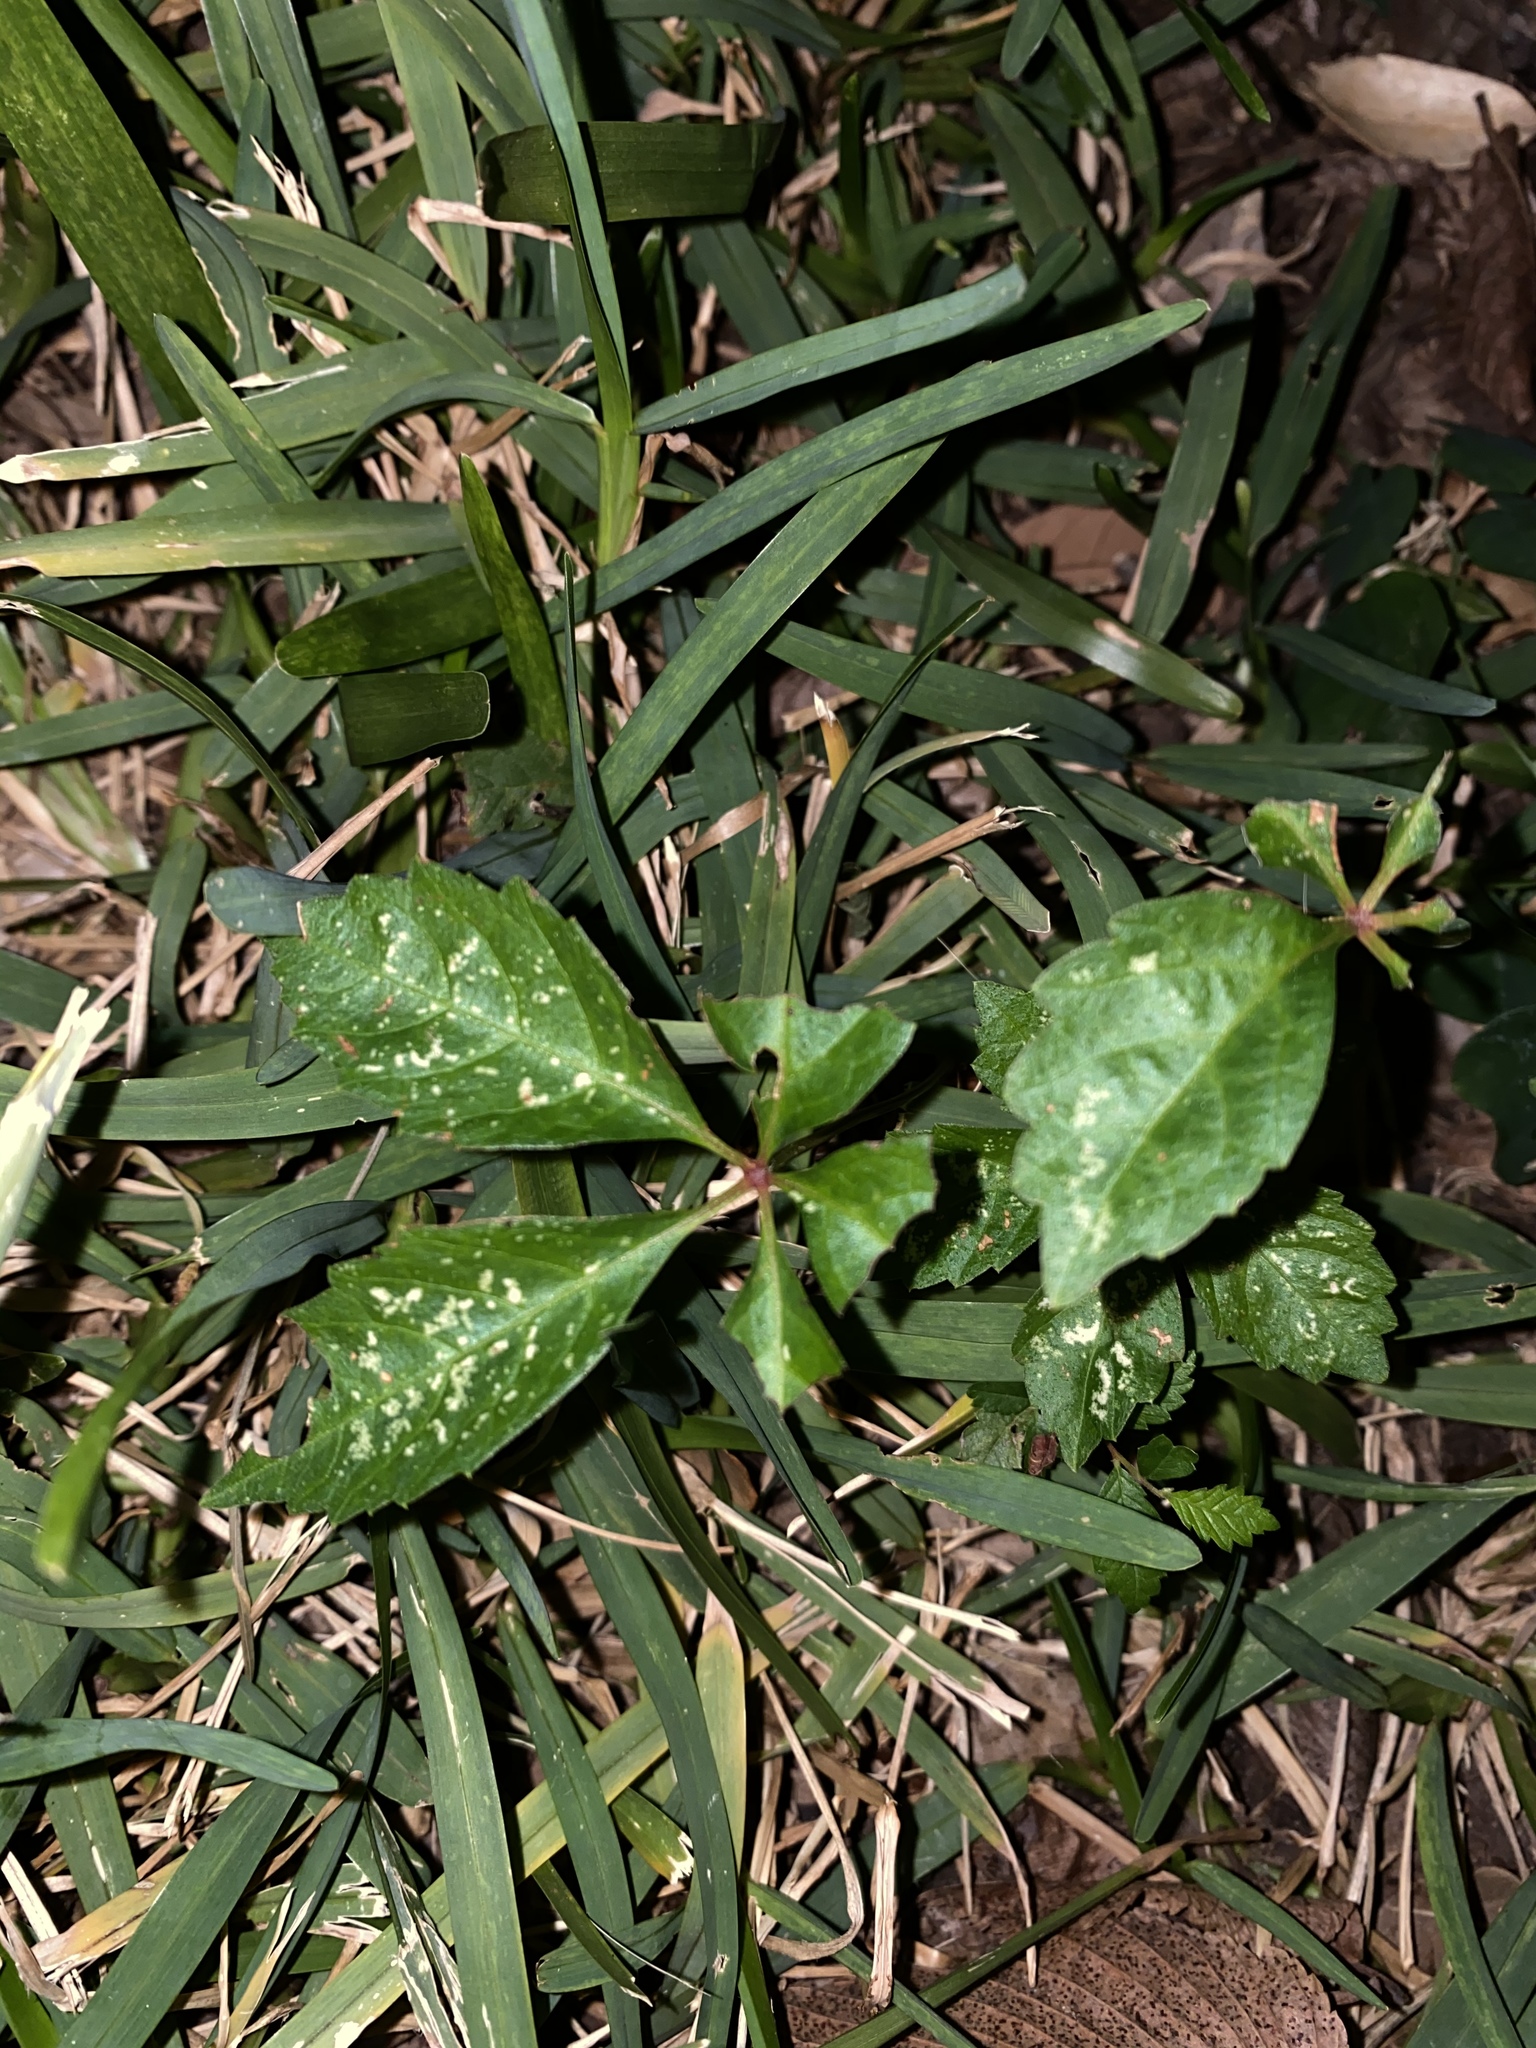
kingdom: Plantae
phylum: Tracheophyta
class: Magnoliopsida
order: Vitales
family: Vitaceae
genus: Parthenocissus
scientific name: Parthenocissus quinquefolia
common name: Virginia-creeper
